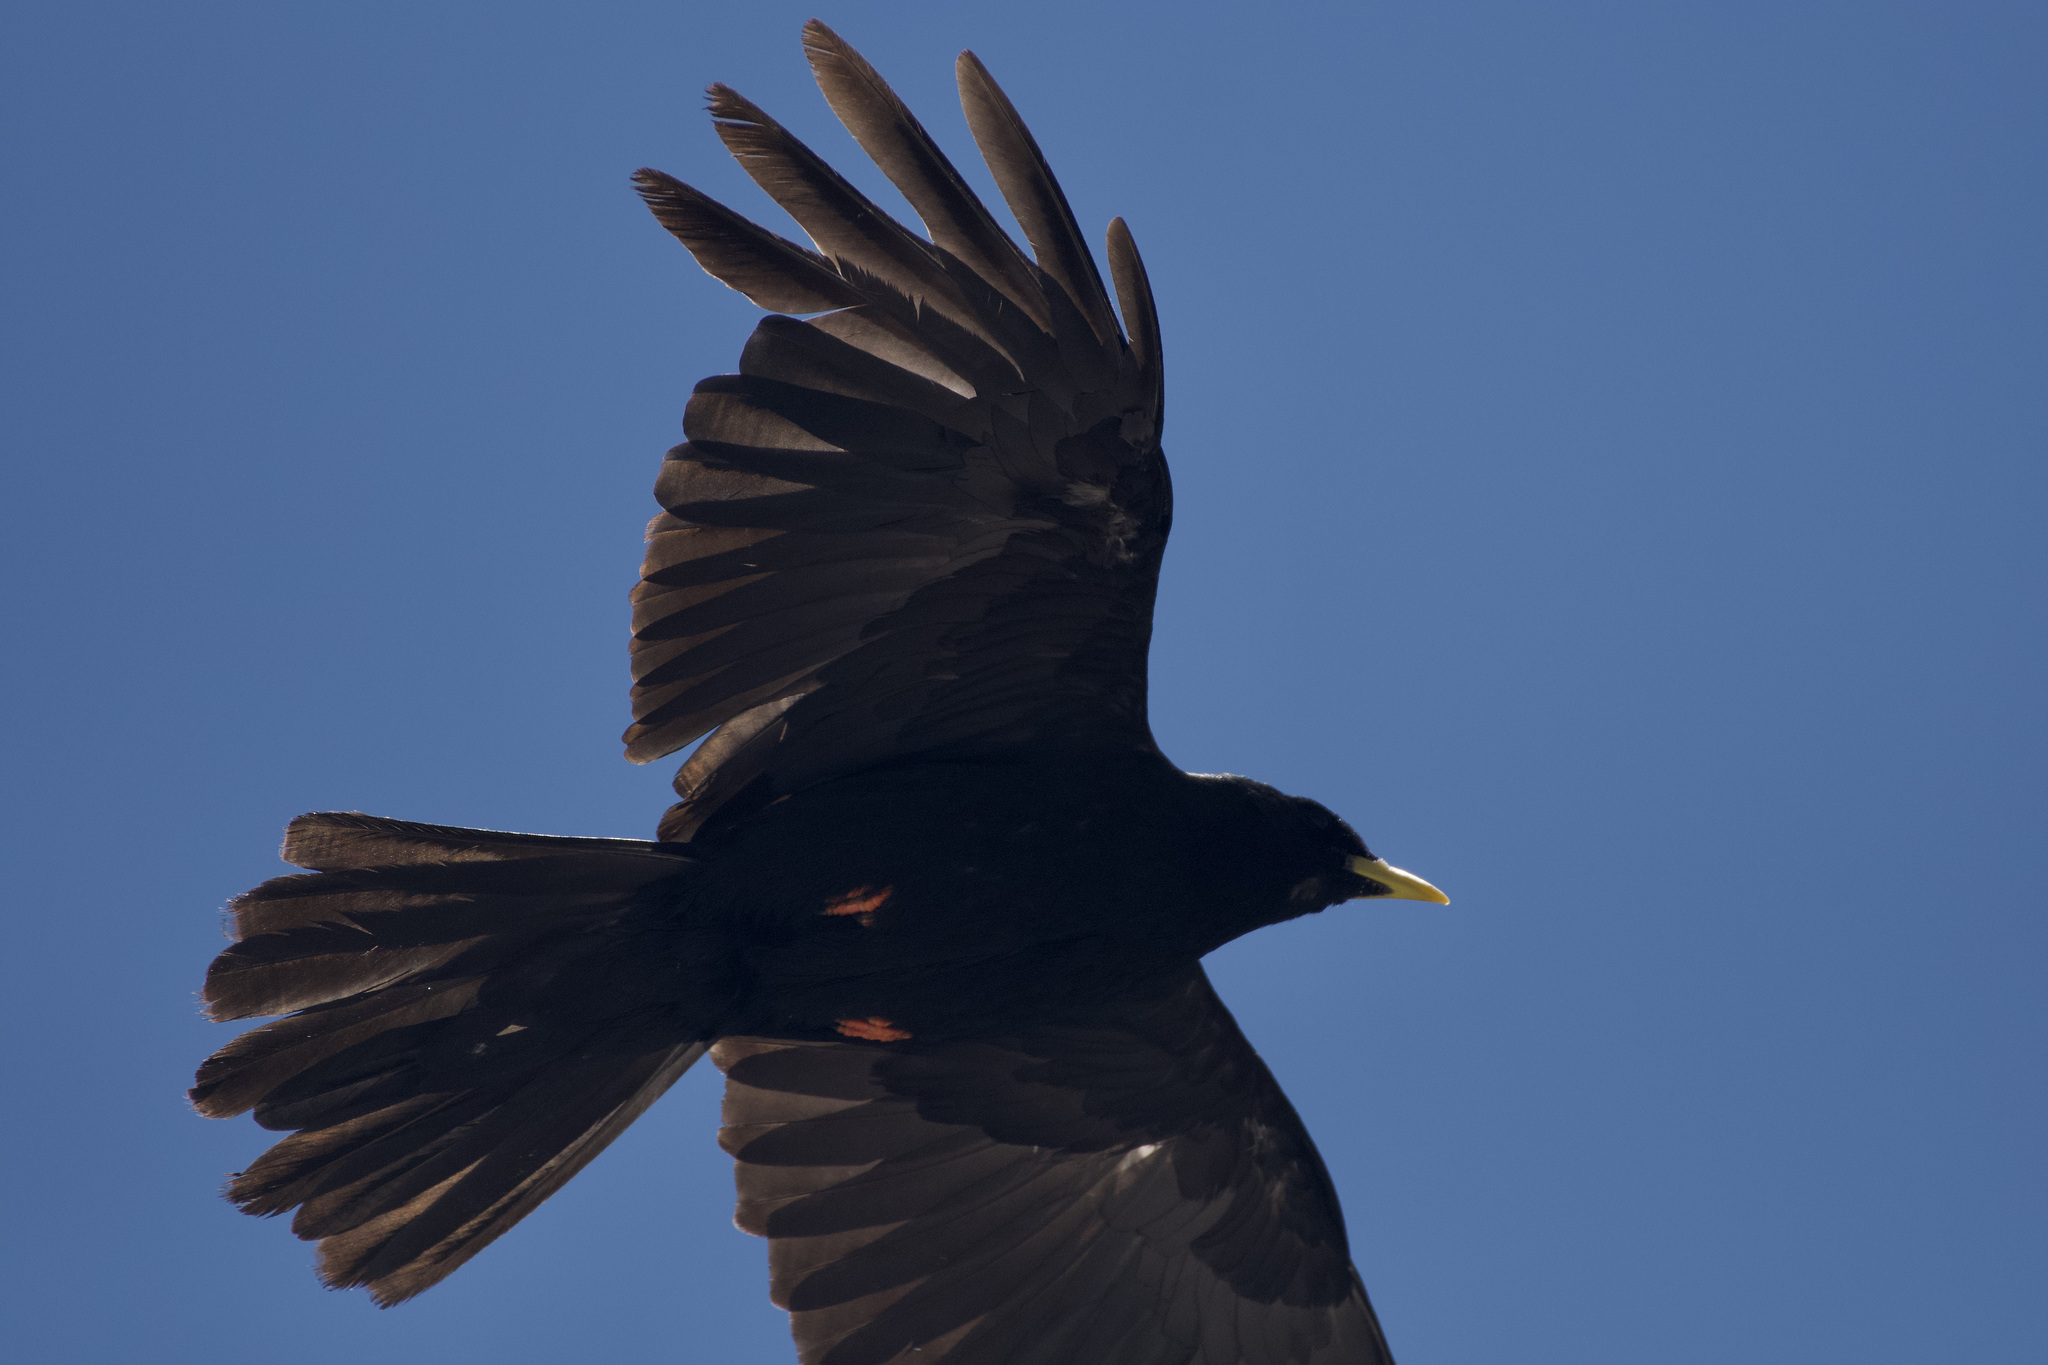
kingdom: Animalia
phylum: Chordata
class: Aves
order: Passeriformes
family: Corvidae
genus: Pyrrhocorax
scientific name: Pyrrhocorax graculus
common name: Alpine chough
